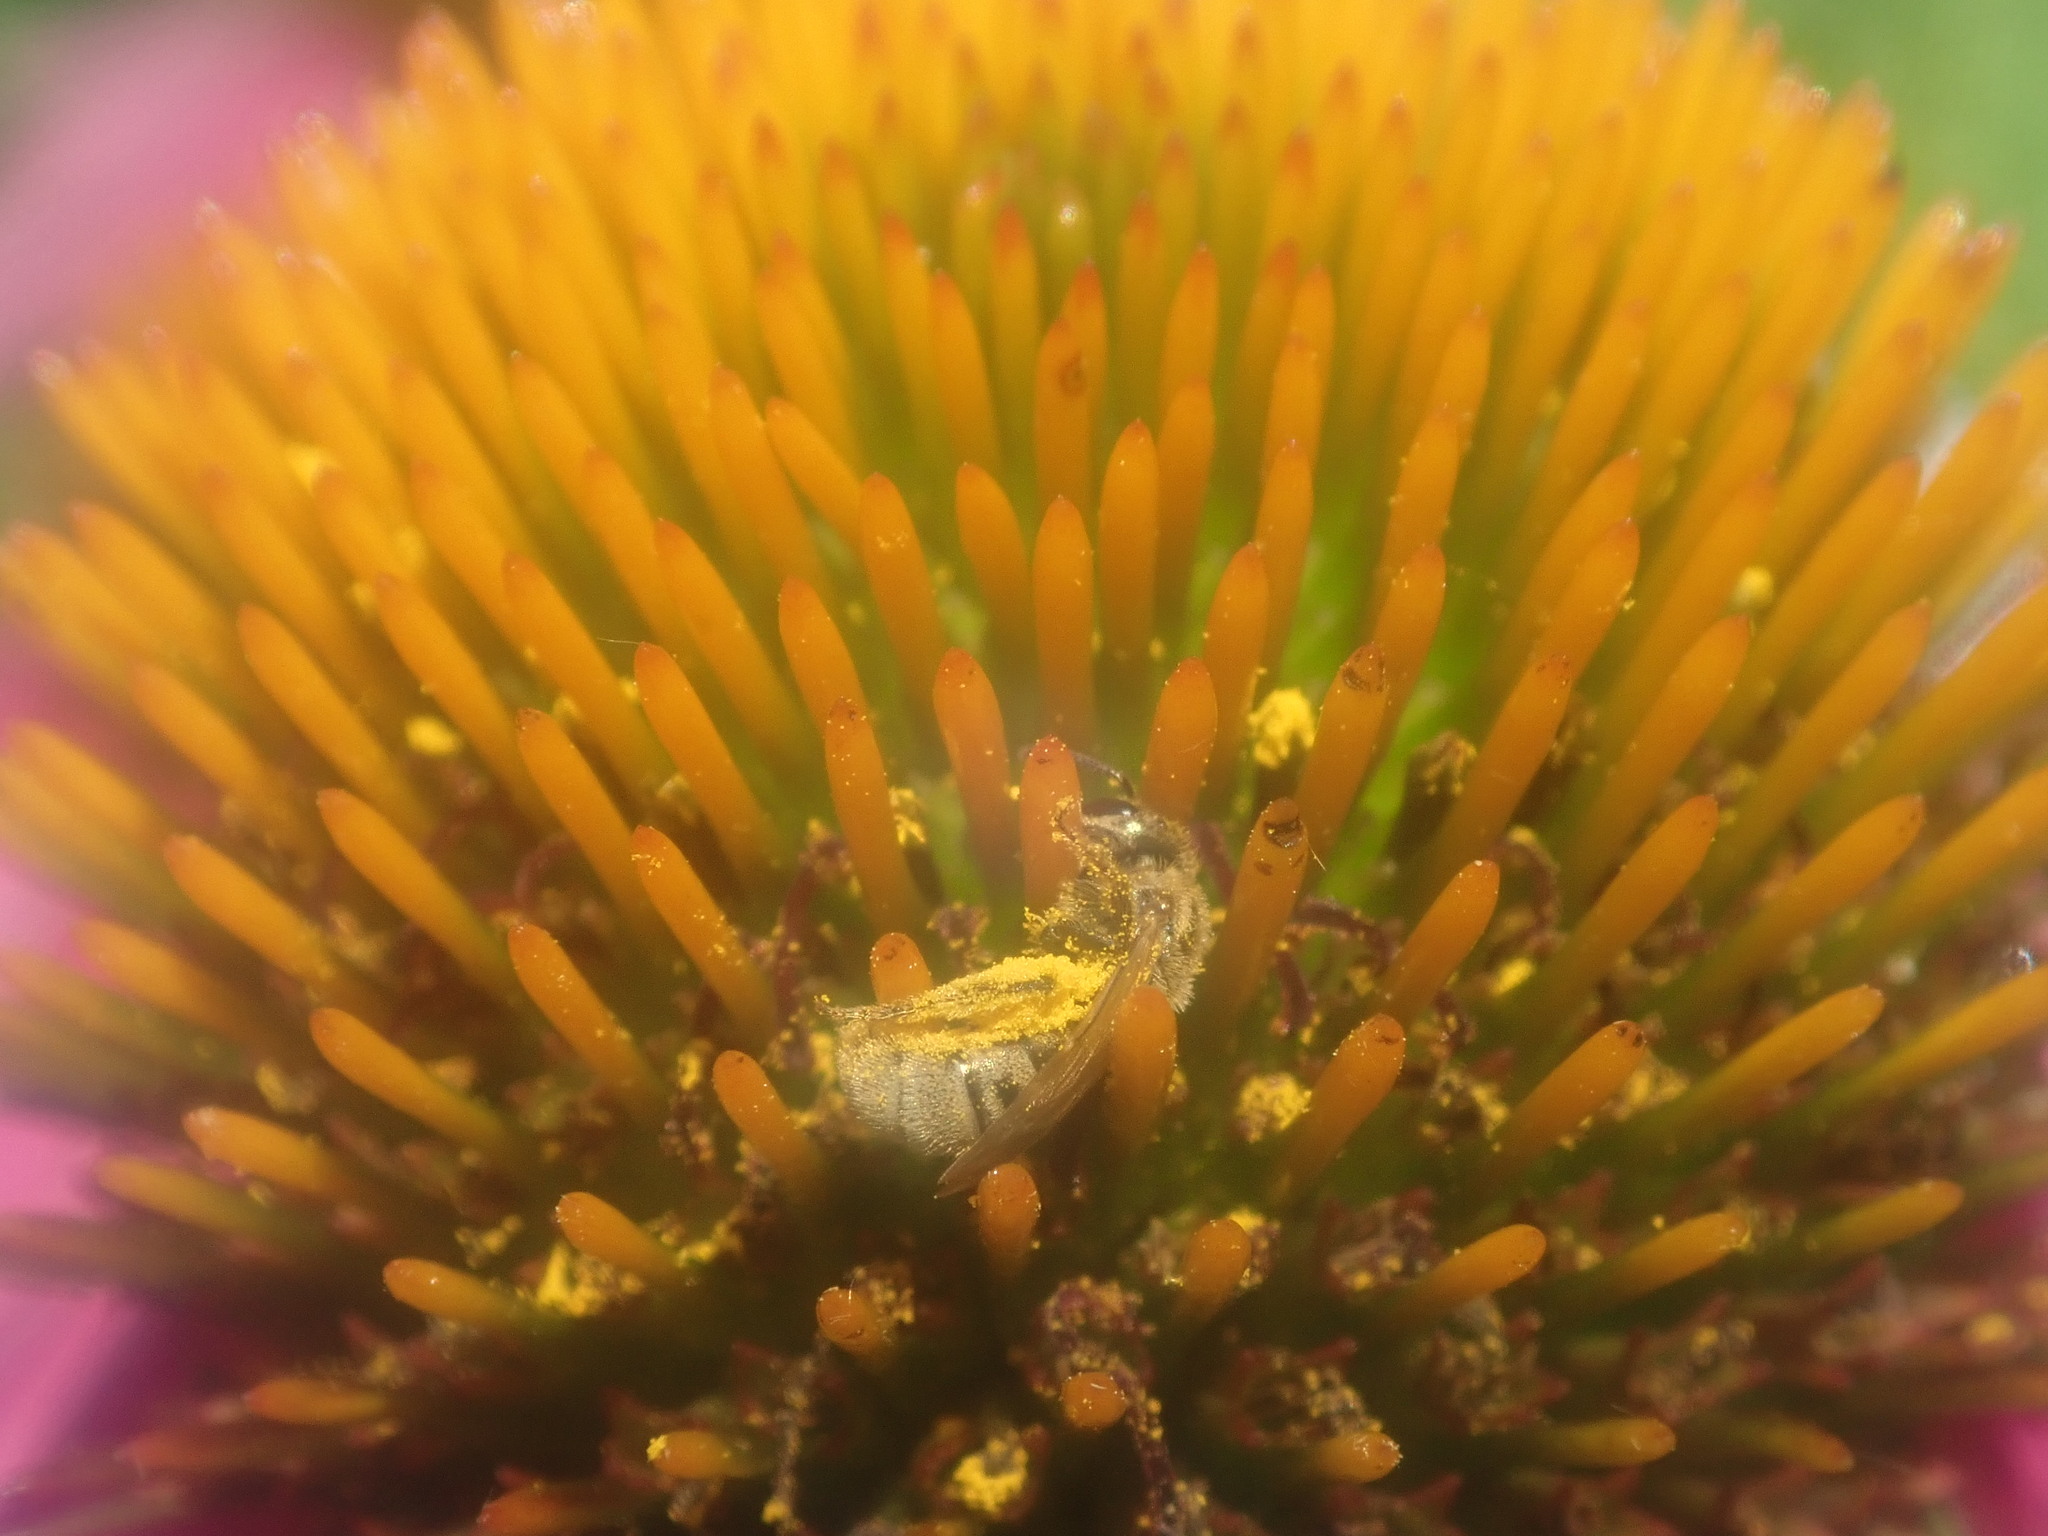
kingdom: Animalia
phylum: Arthropoda
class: Insecta
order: Hymenoptera
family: Halictidae
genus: Lasioglossum
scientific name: Lasioglossum
